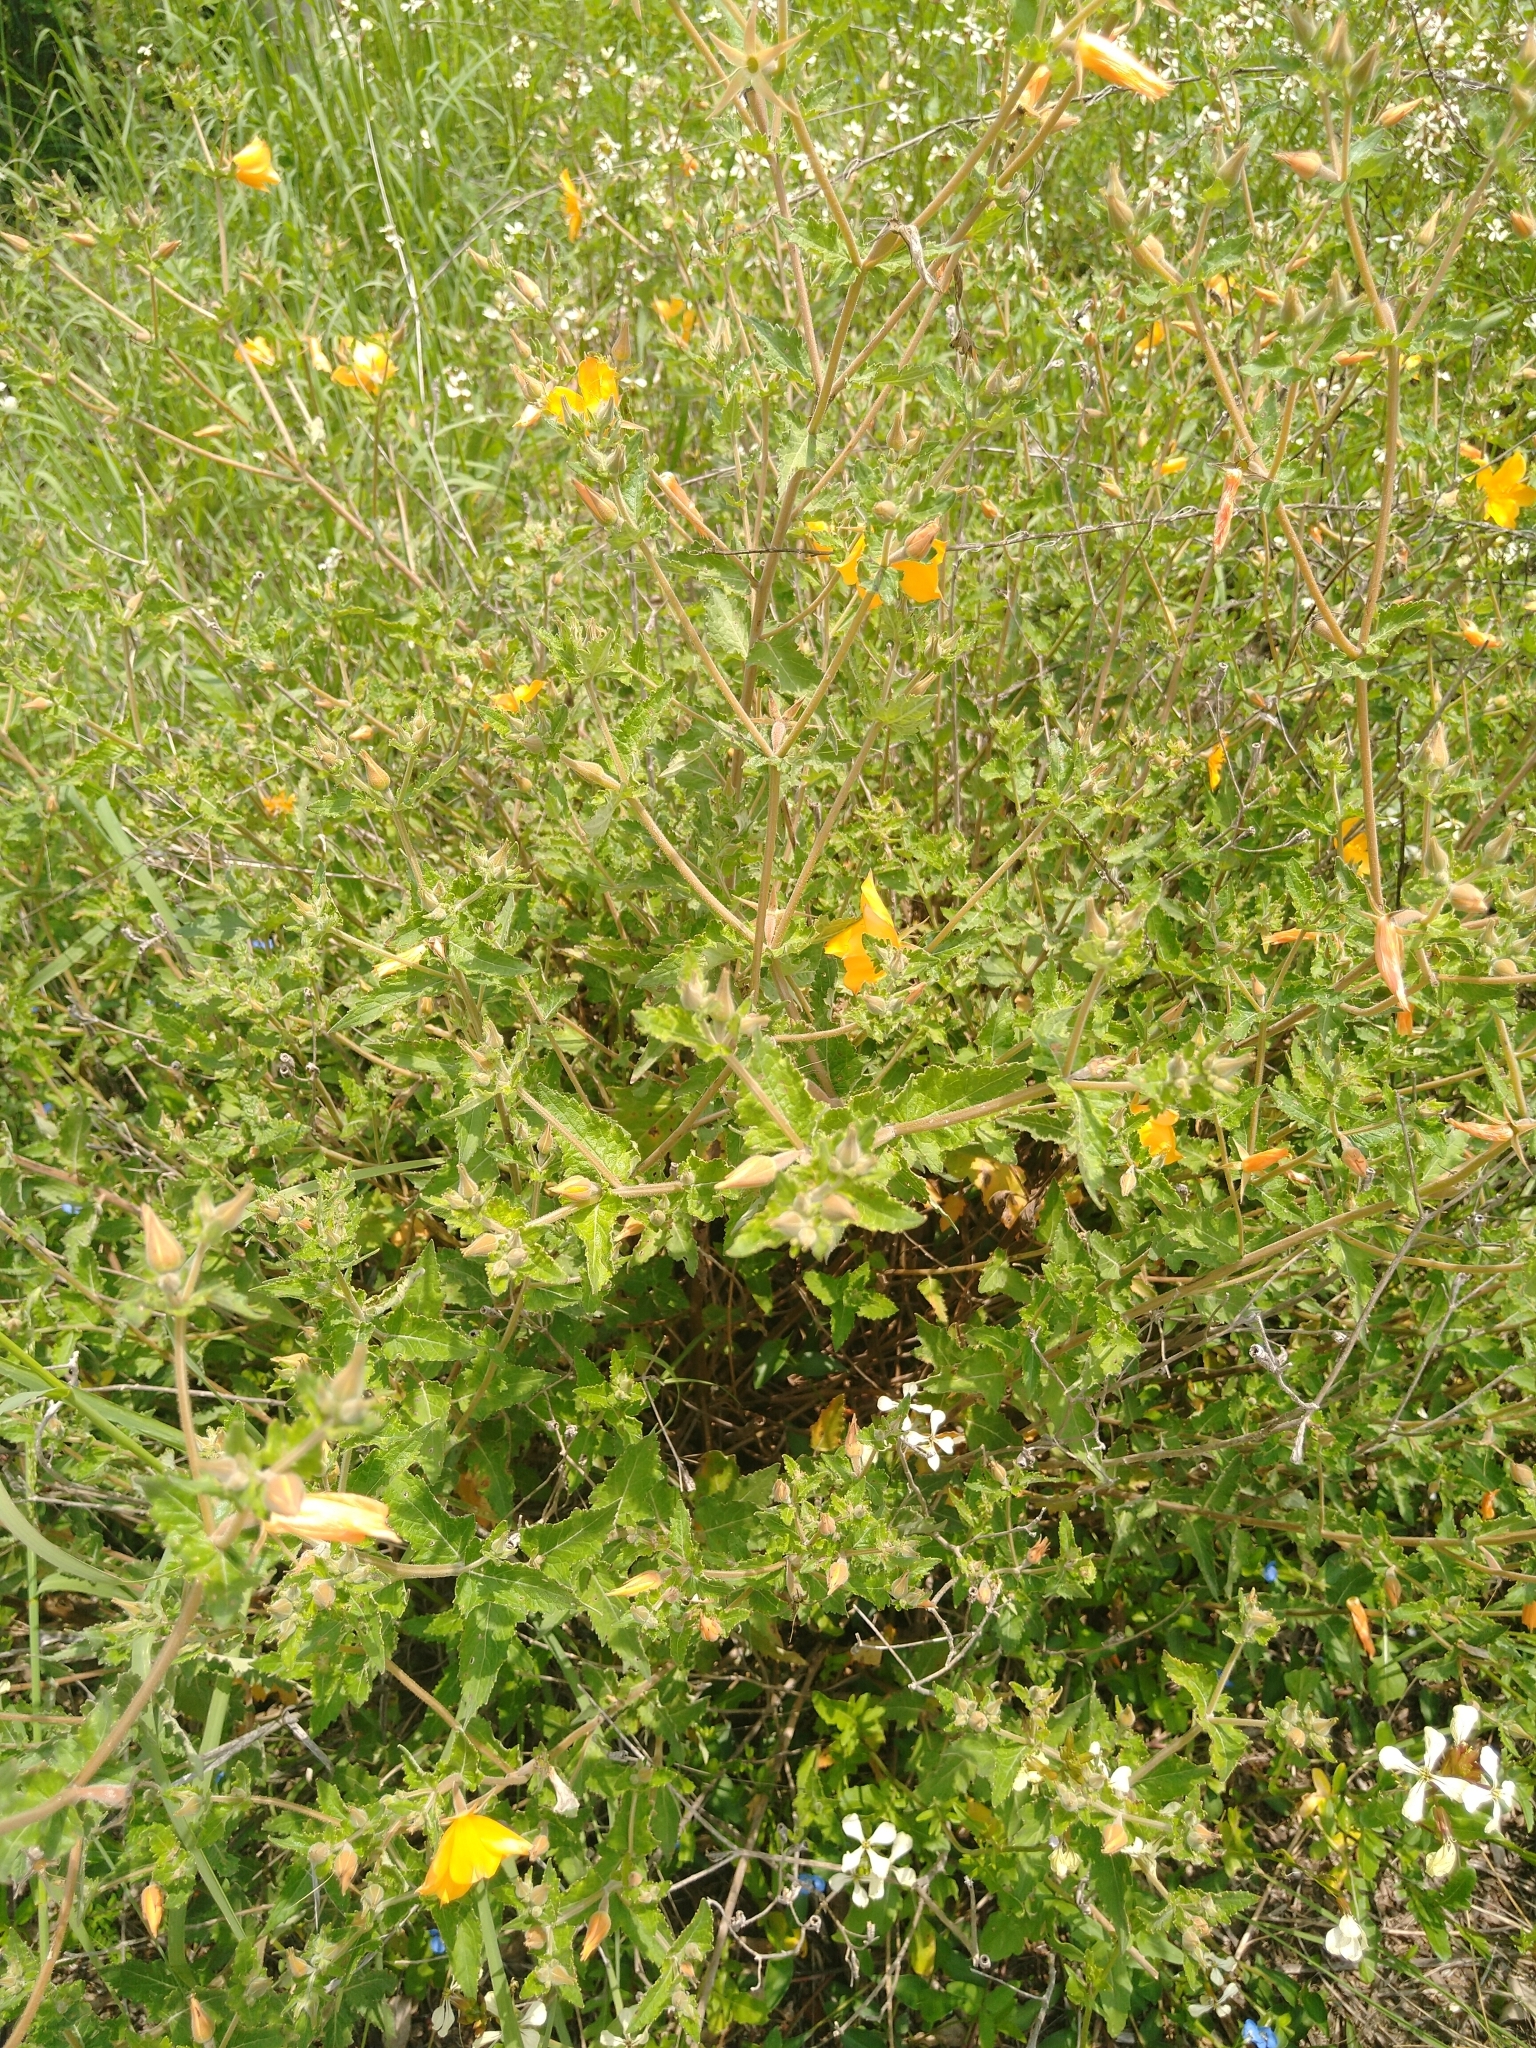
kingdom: Plantae
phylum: Tracheophyta
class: Magnoliopsida
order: Cornales
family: Loasaceae
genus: Mentzelia
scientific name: Mentzelia hispida
